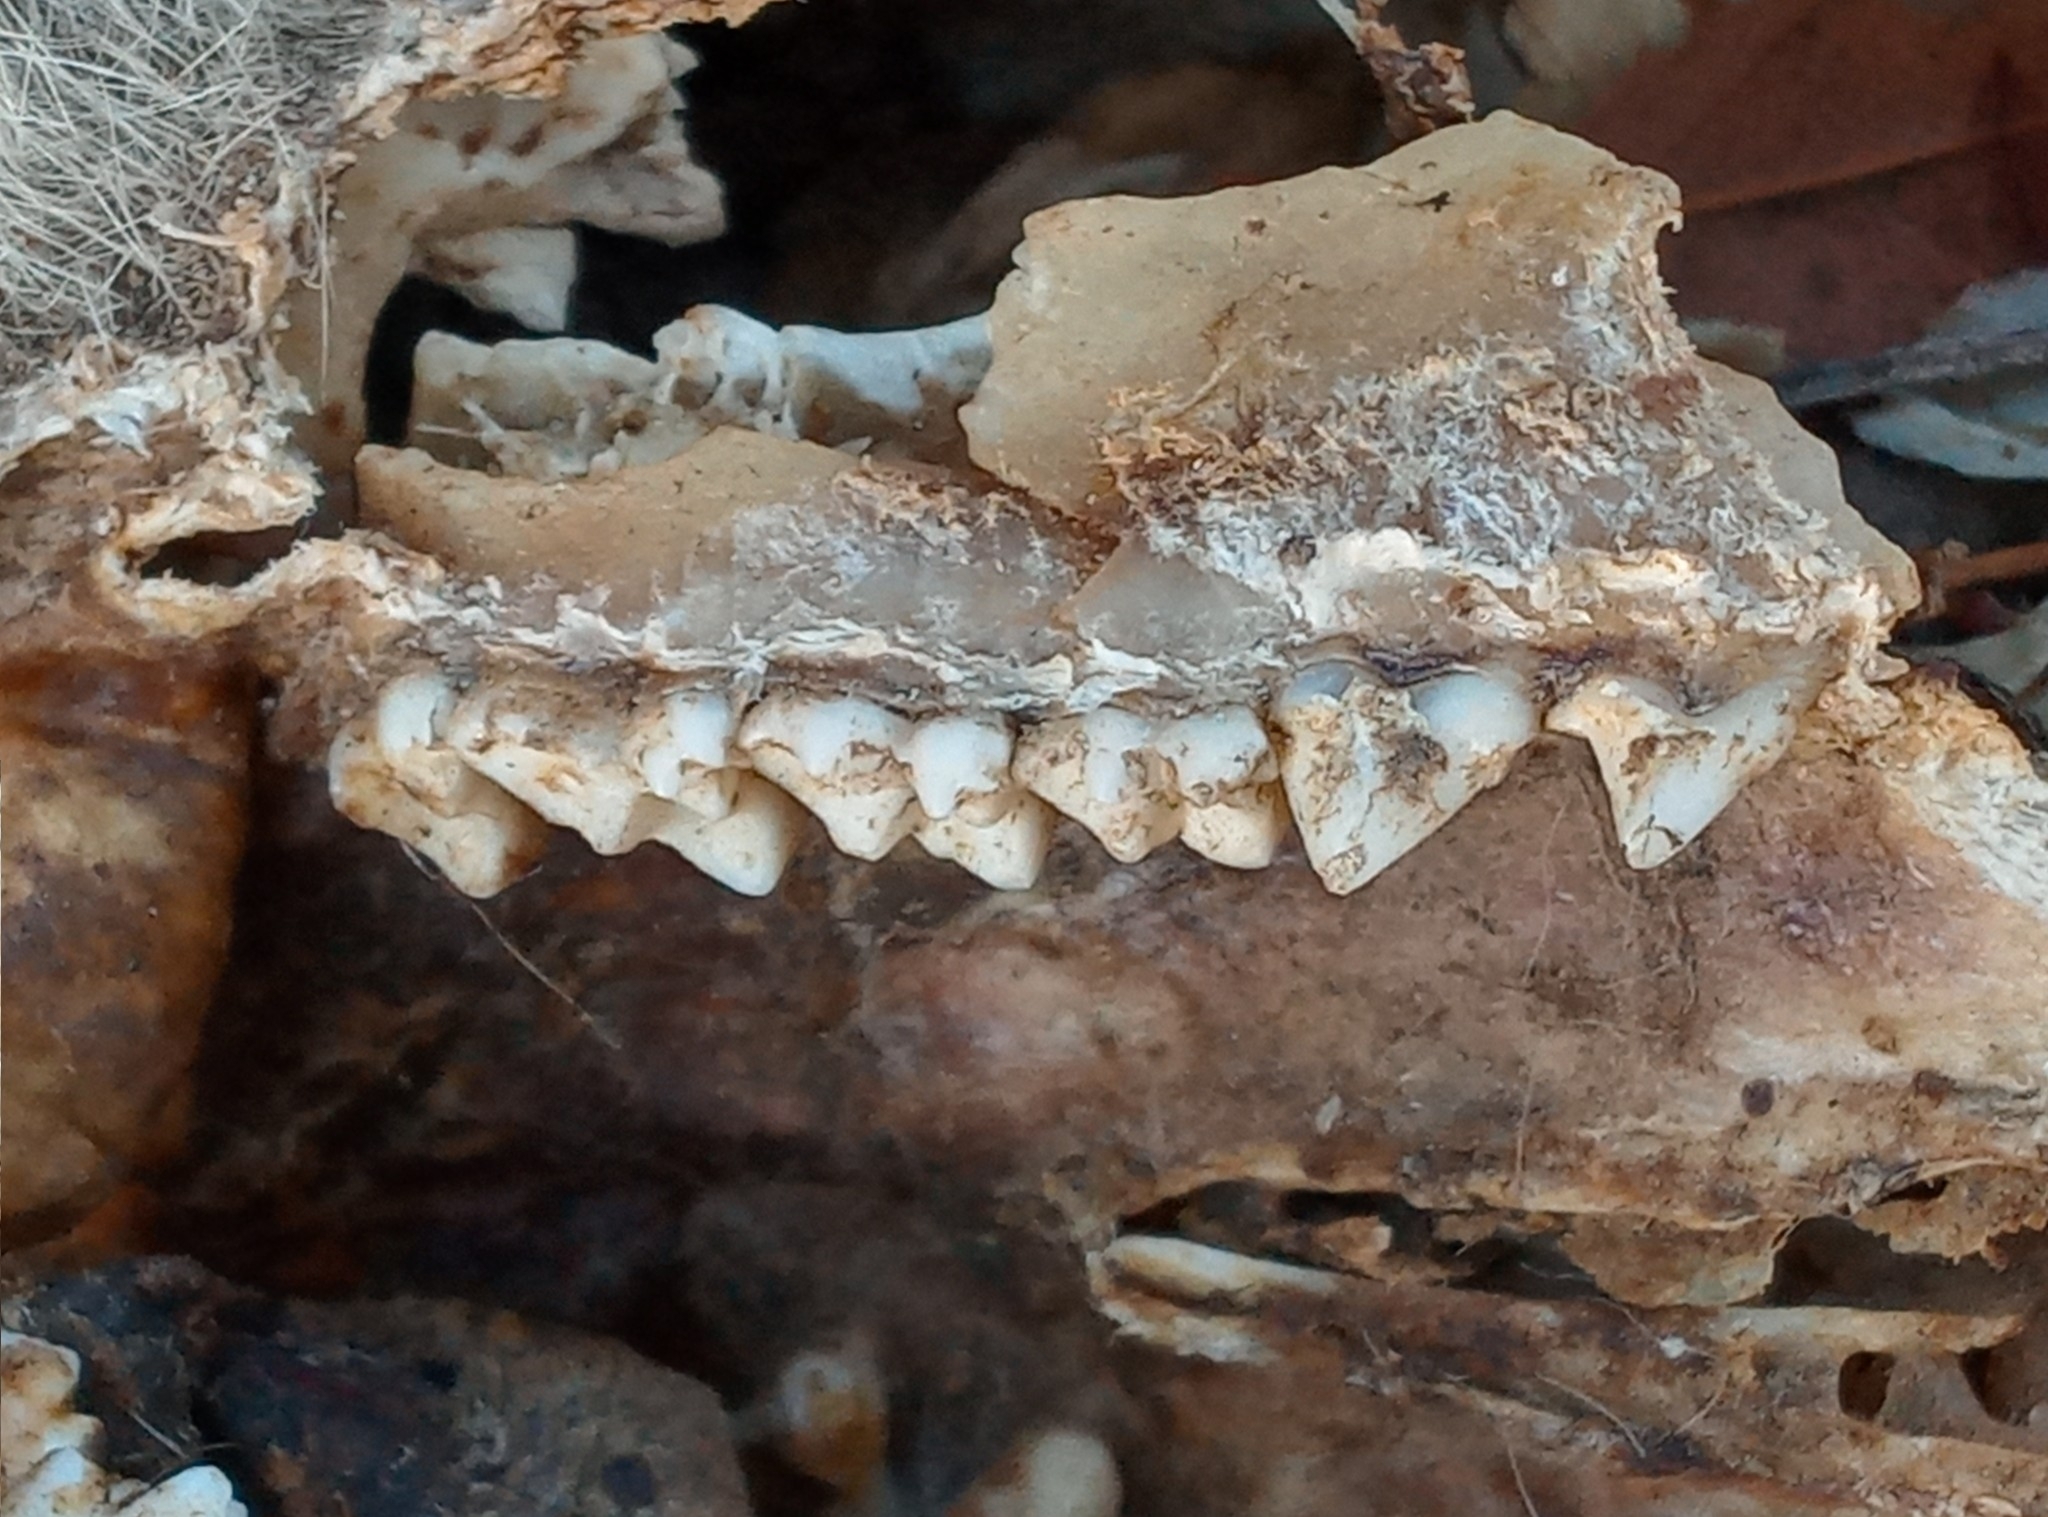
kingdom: Animalia
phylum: Chordata
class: Mammalia
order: Didelphimorphia
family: Didelphidae
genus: Didelphis
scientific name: Didelphis virginiana
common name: Virginia opossum
